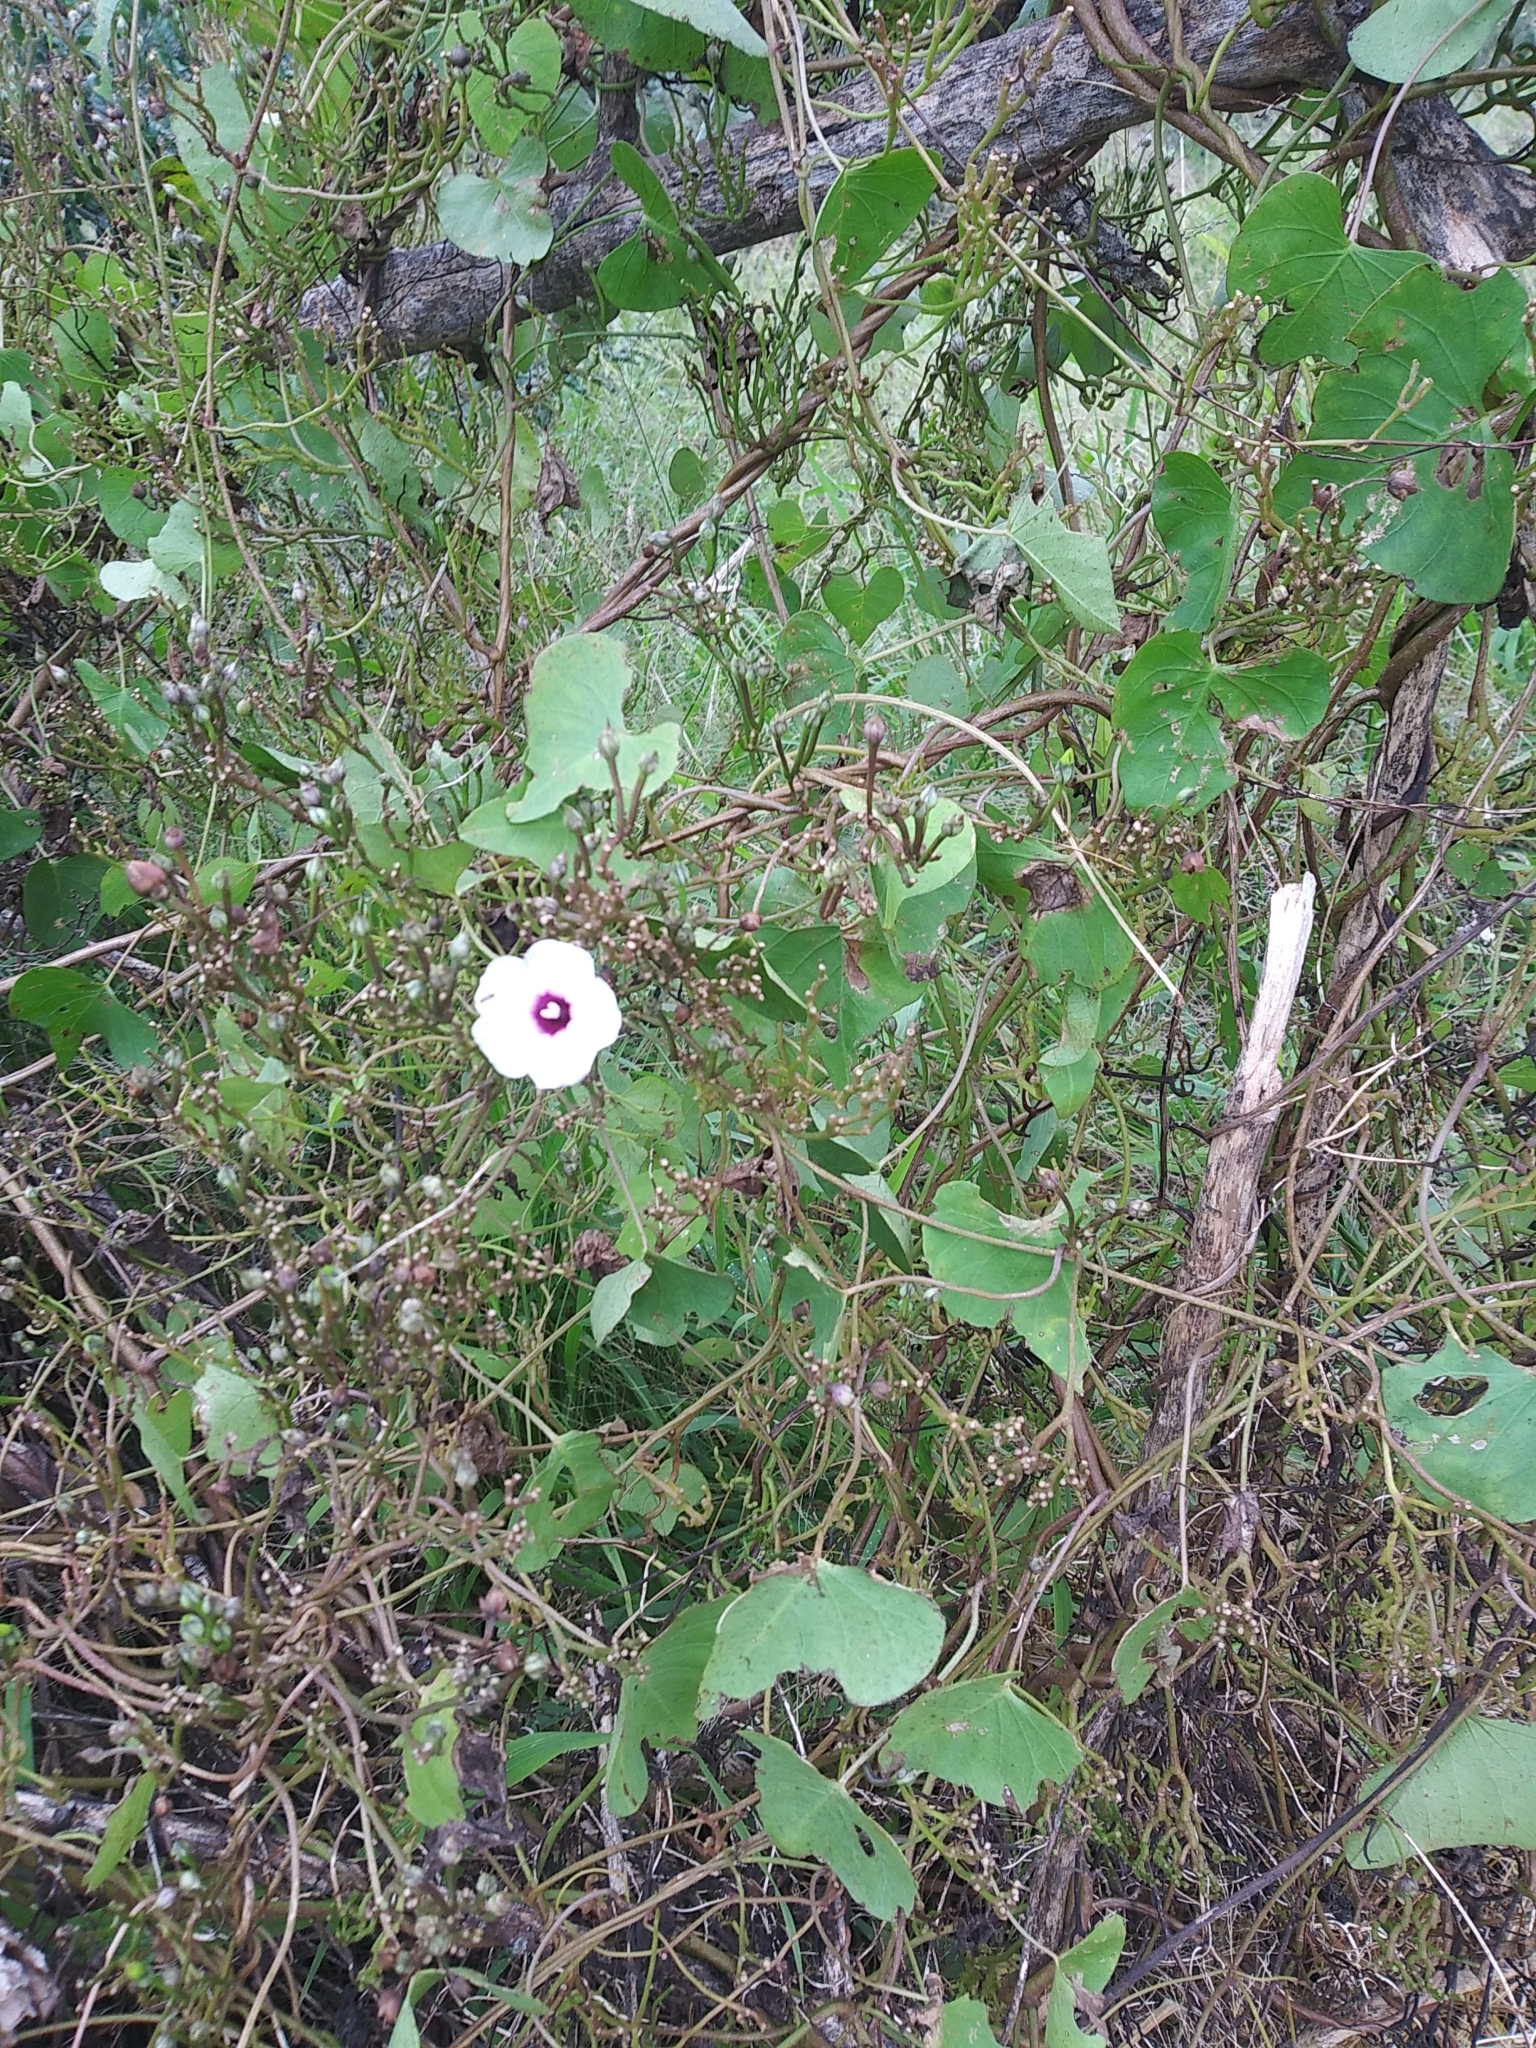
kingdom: Plantae
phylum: Tracheophyta
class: Magnoliopsida
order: Solanales
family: Convolvulaceae
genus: Ipomoea
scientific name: Ipomoea amnicola
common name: Redcenter morning-glory
